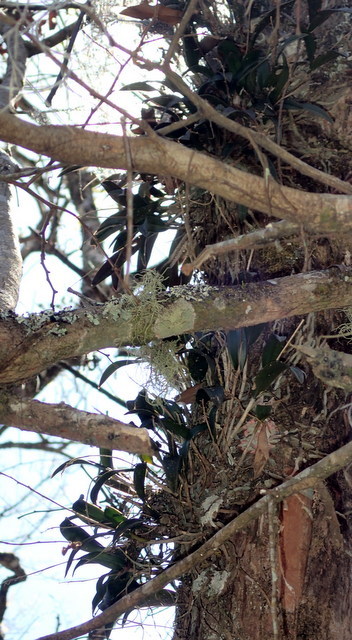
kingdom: Plantae
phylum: Tracheophyta
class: Liliopsida
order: Asparagales
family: Orchidaceae
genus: Epidendrum
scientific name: Epidendrum conopseum
